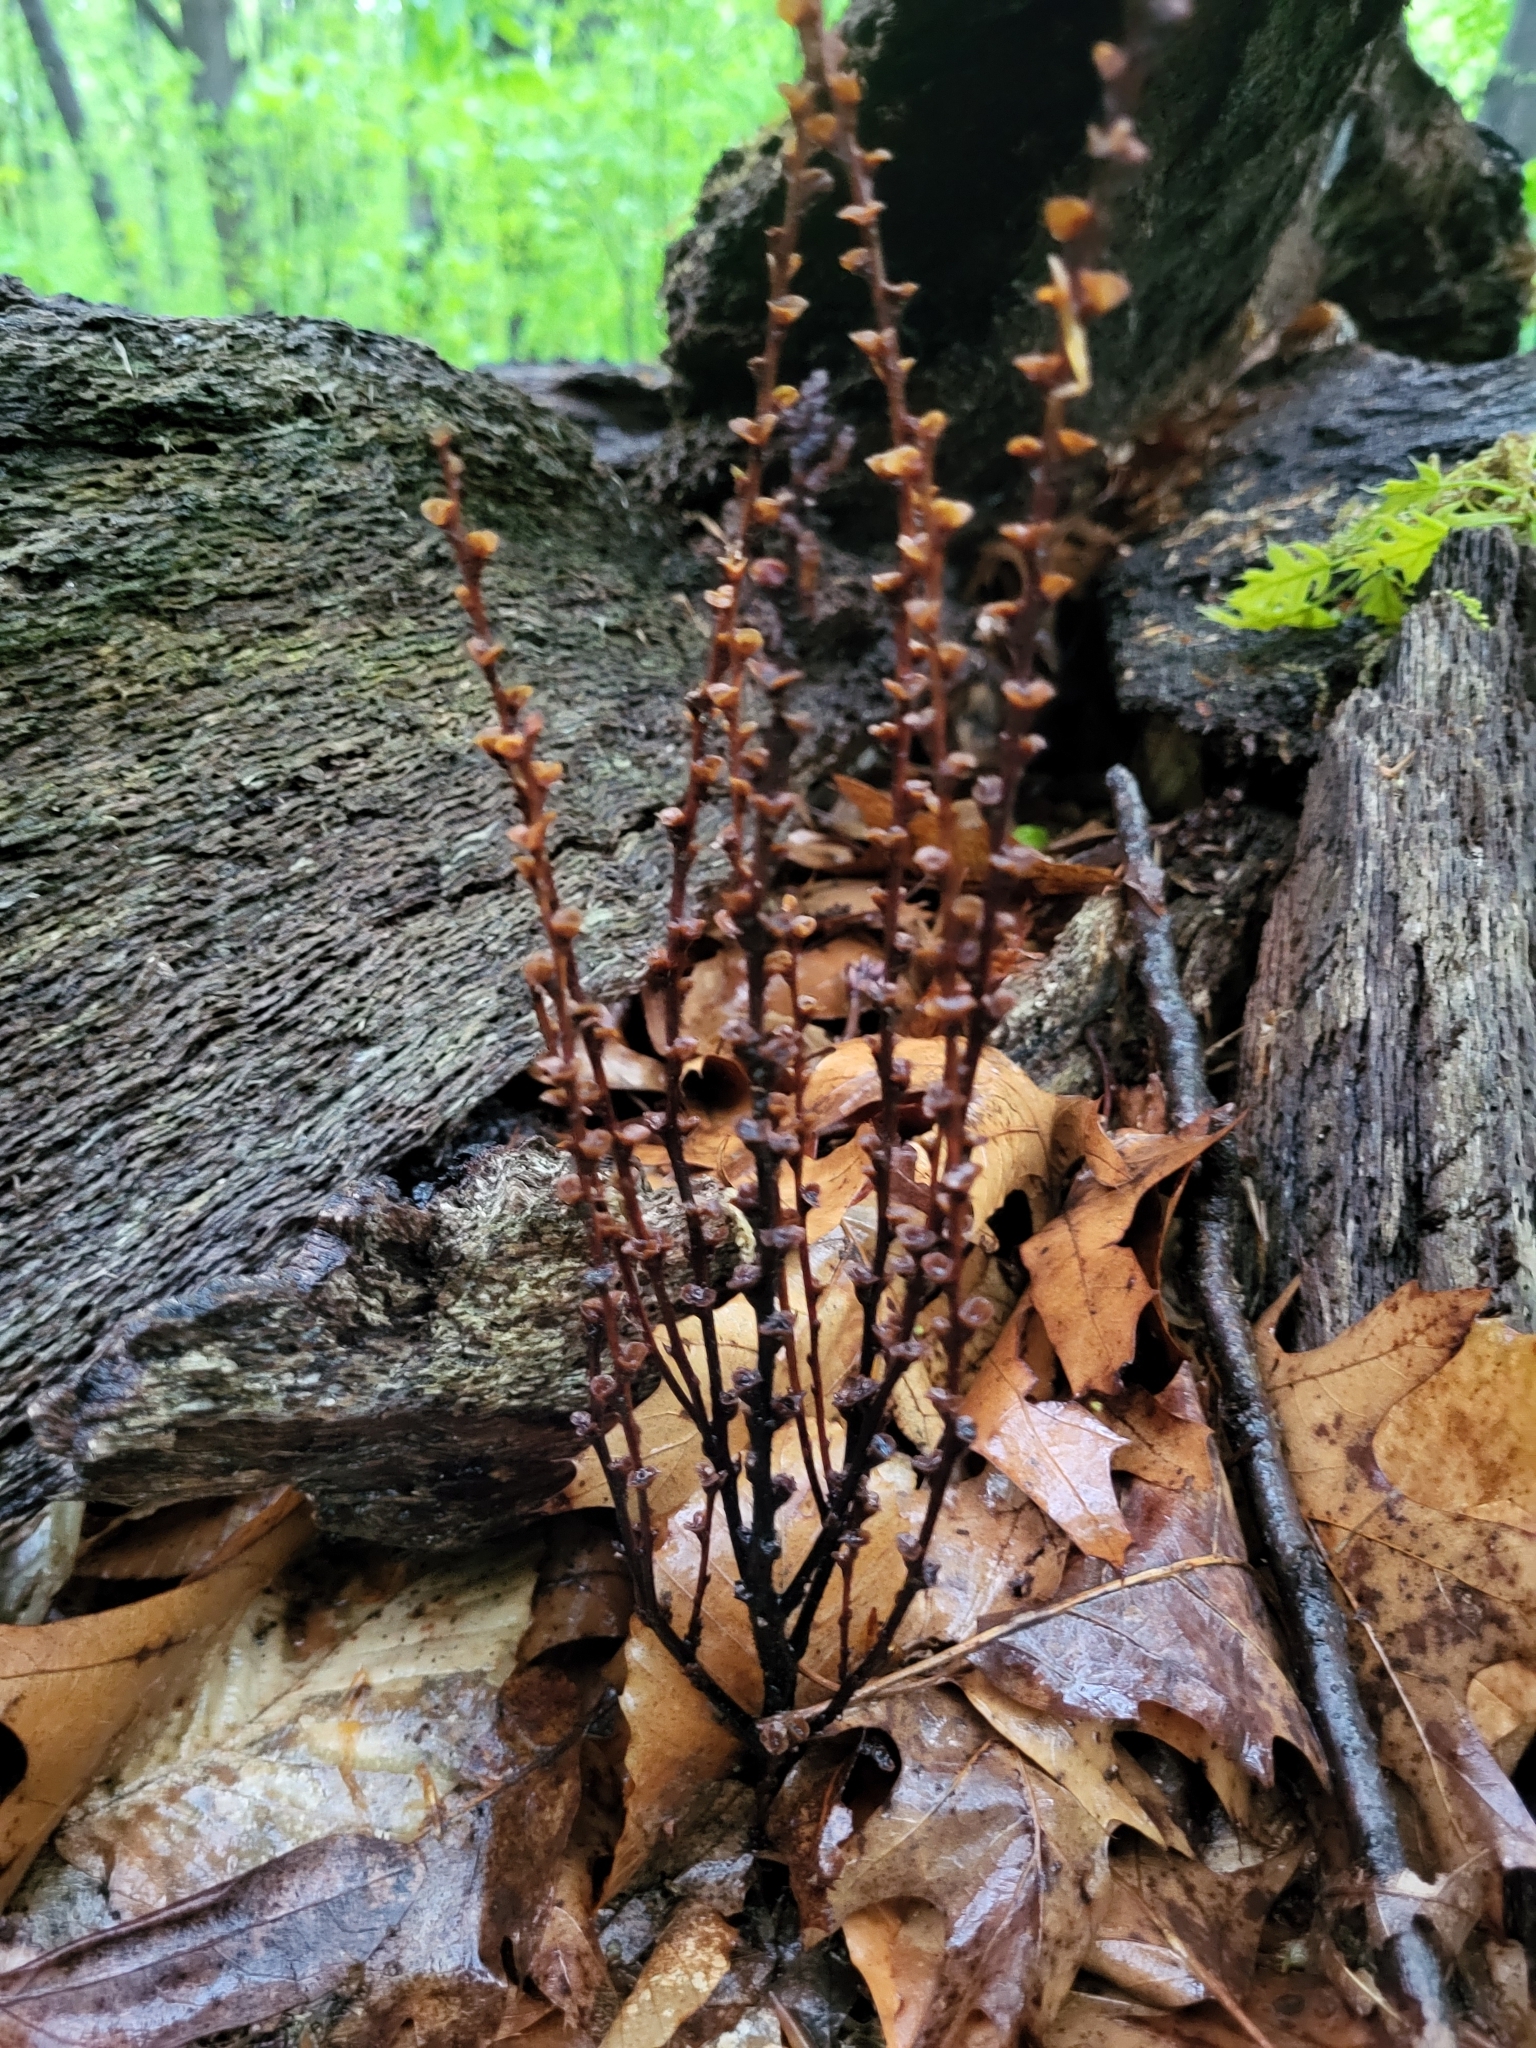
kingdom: Plantae
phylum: Tracheophyta
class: Magnoliopsida
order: Lamiales
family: Orobanchaceae
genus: Epifagus
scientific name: Epifagus virginiana
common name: Beechdrops
